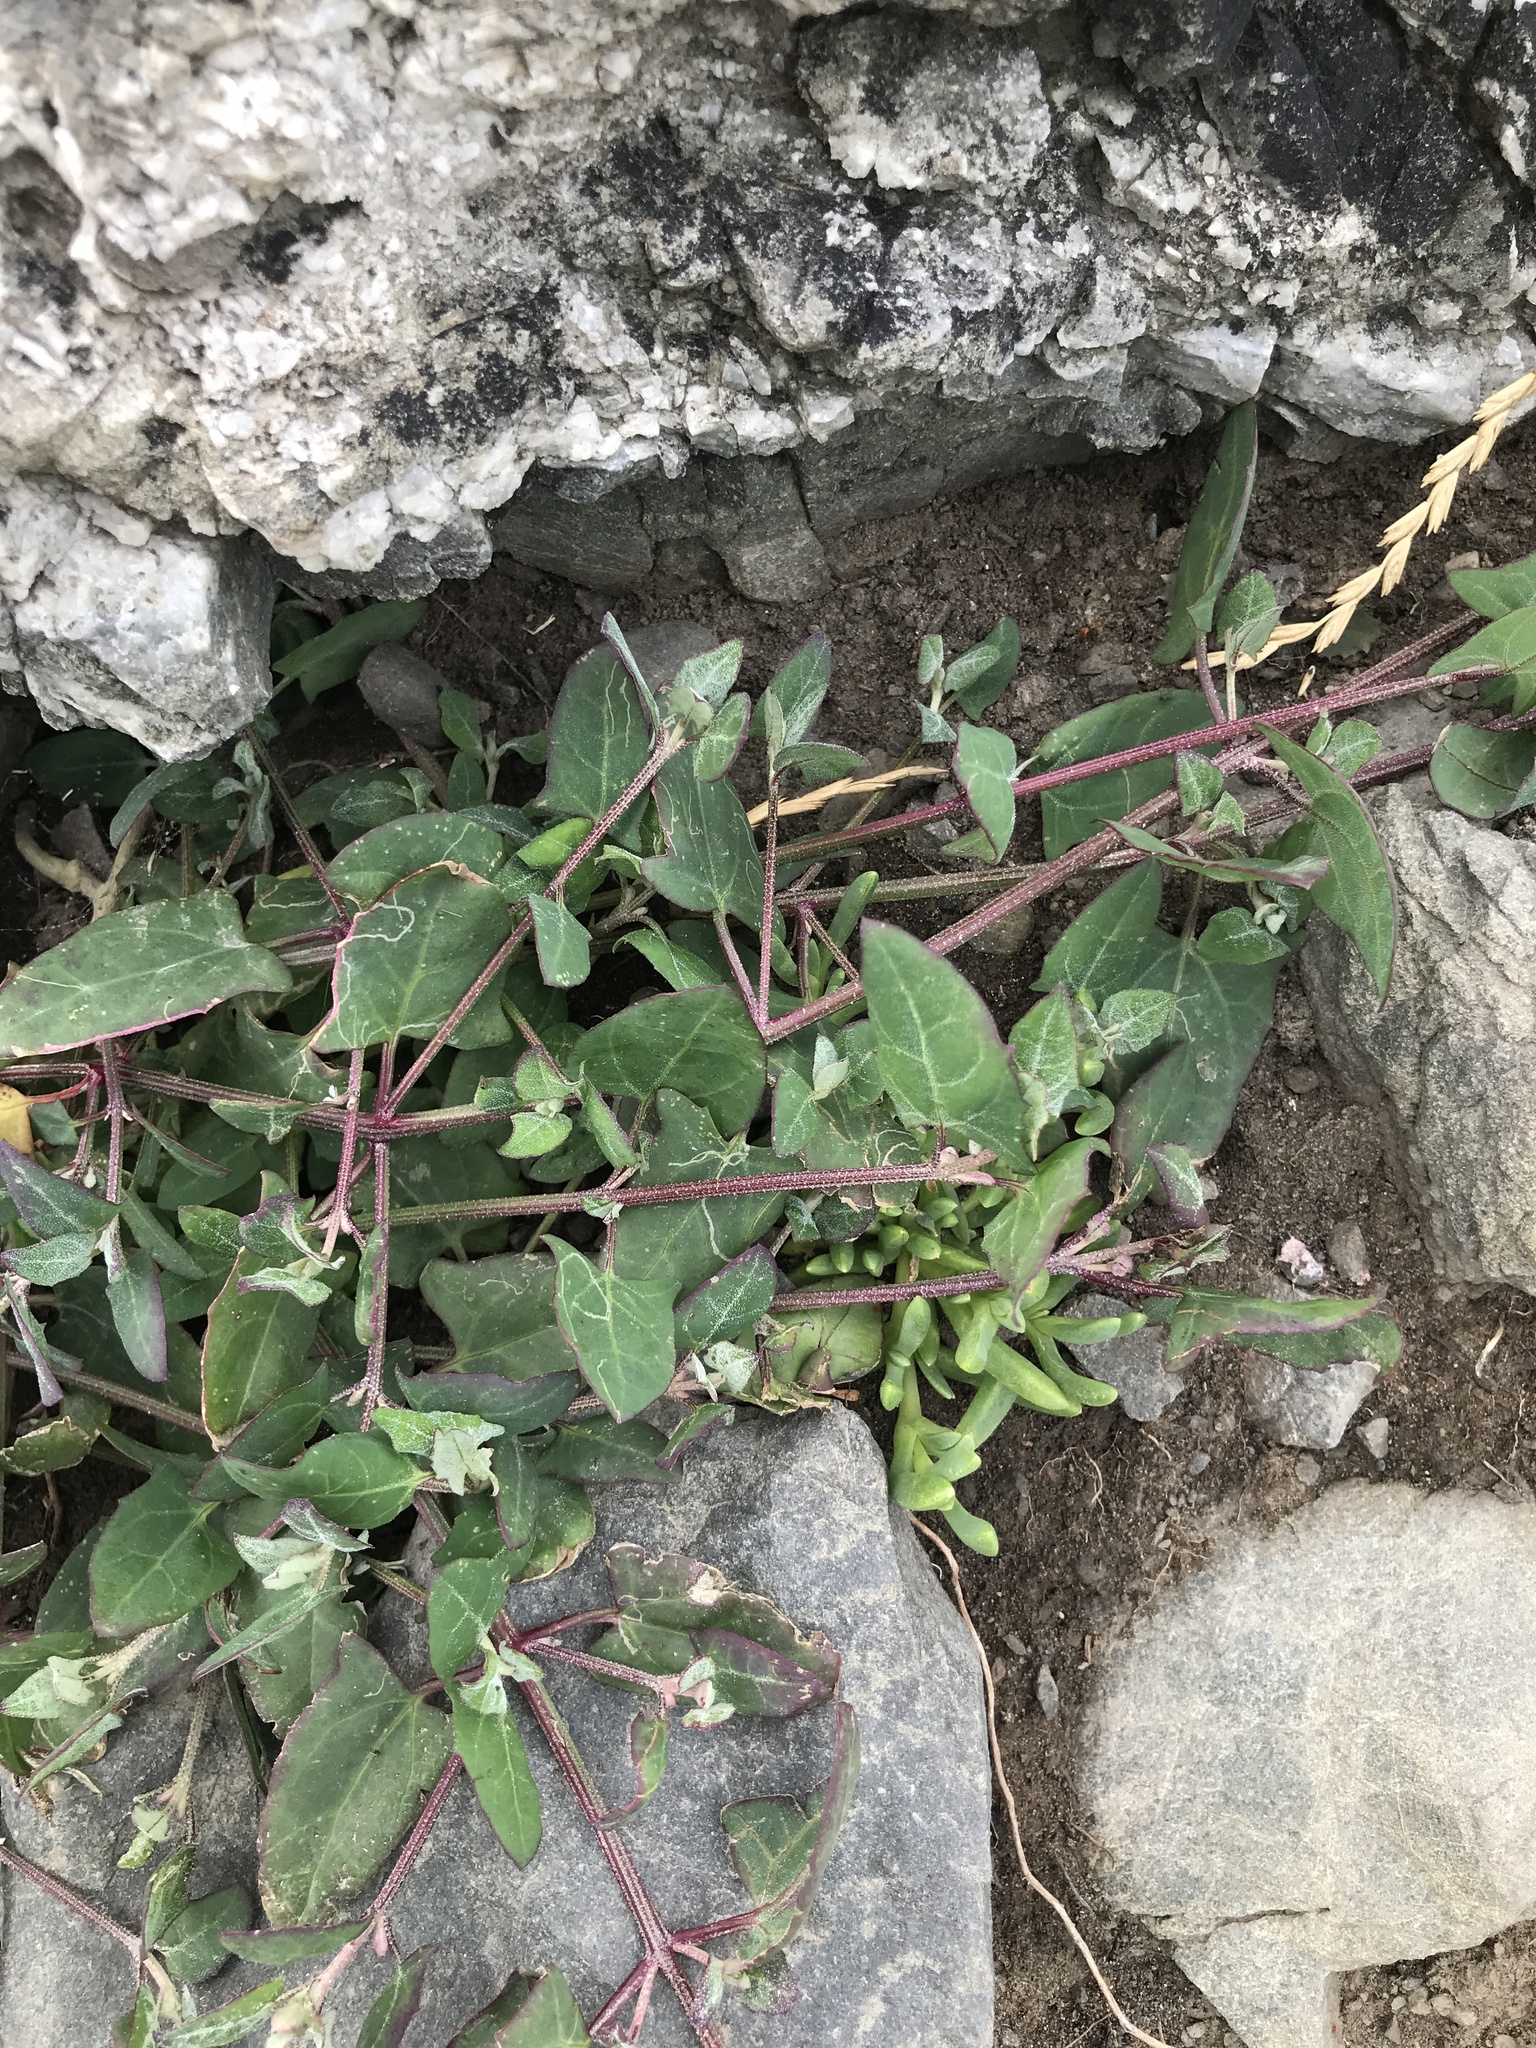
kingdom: Plantae
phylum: Tracheophyta
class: Magnoliopsida
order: Caryophyllales
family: Amaranthaceae
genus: Atriplex
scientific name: Atriplex prostrata
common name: Spear-leaved orache
